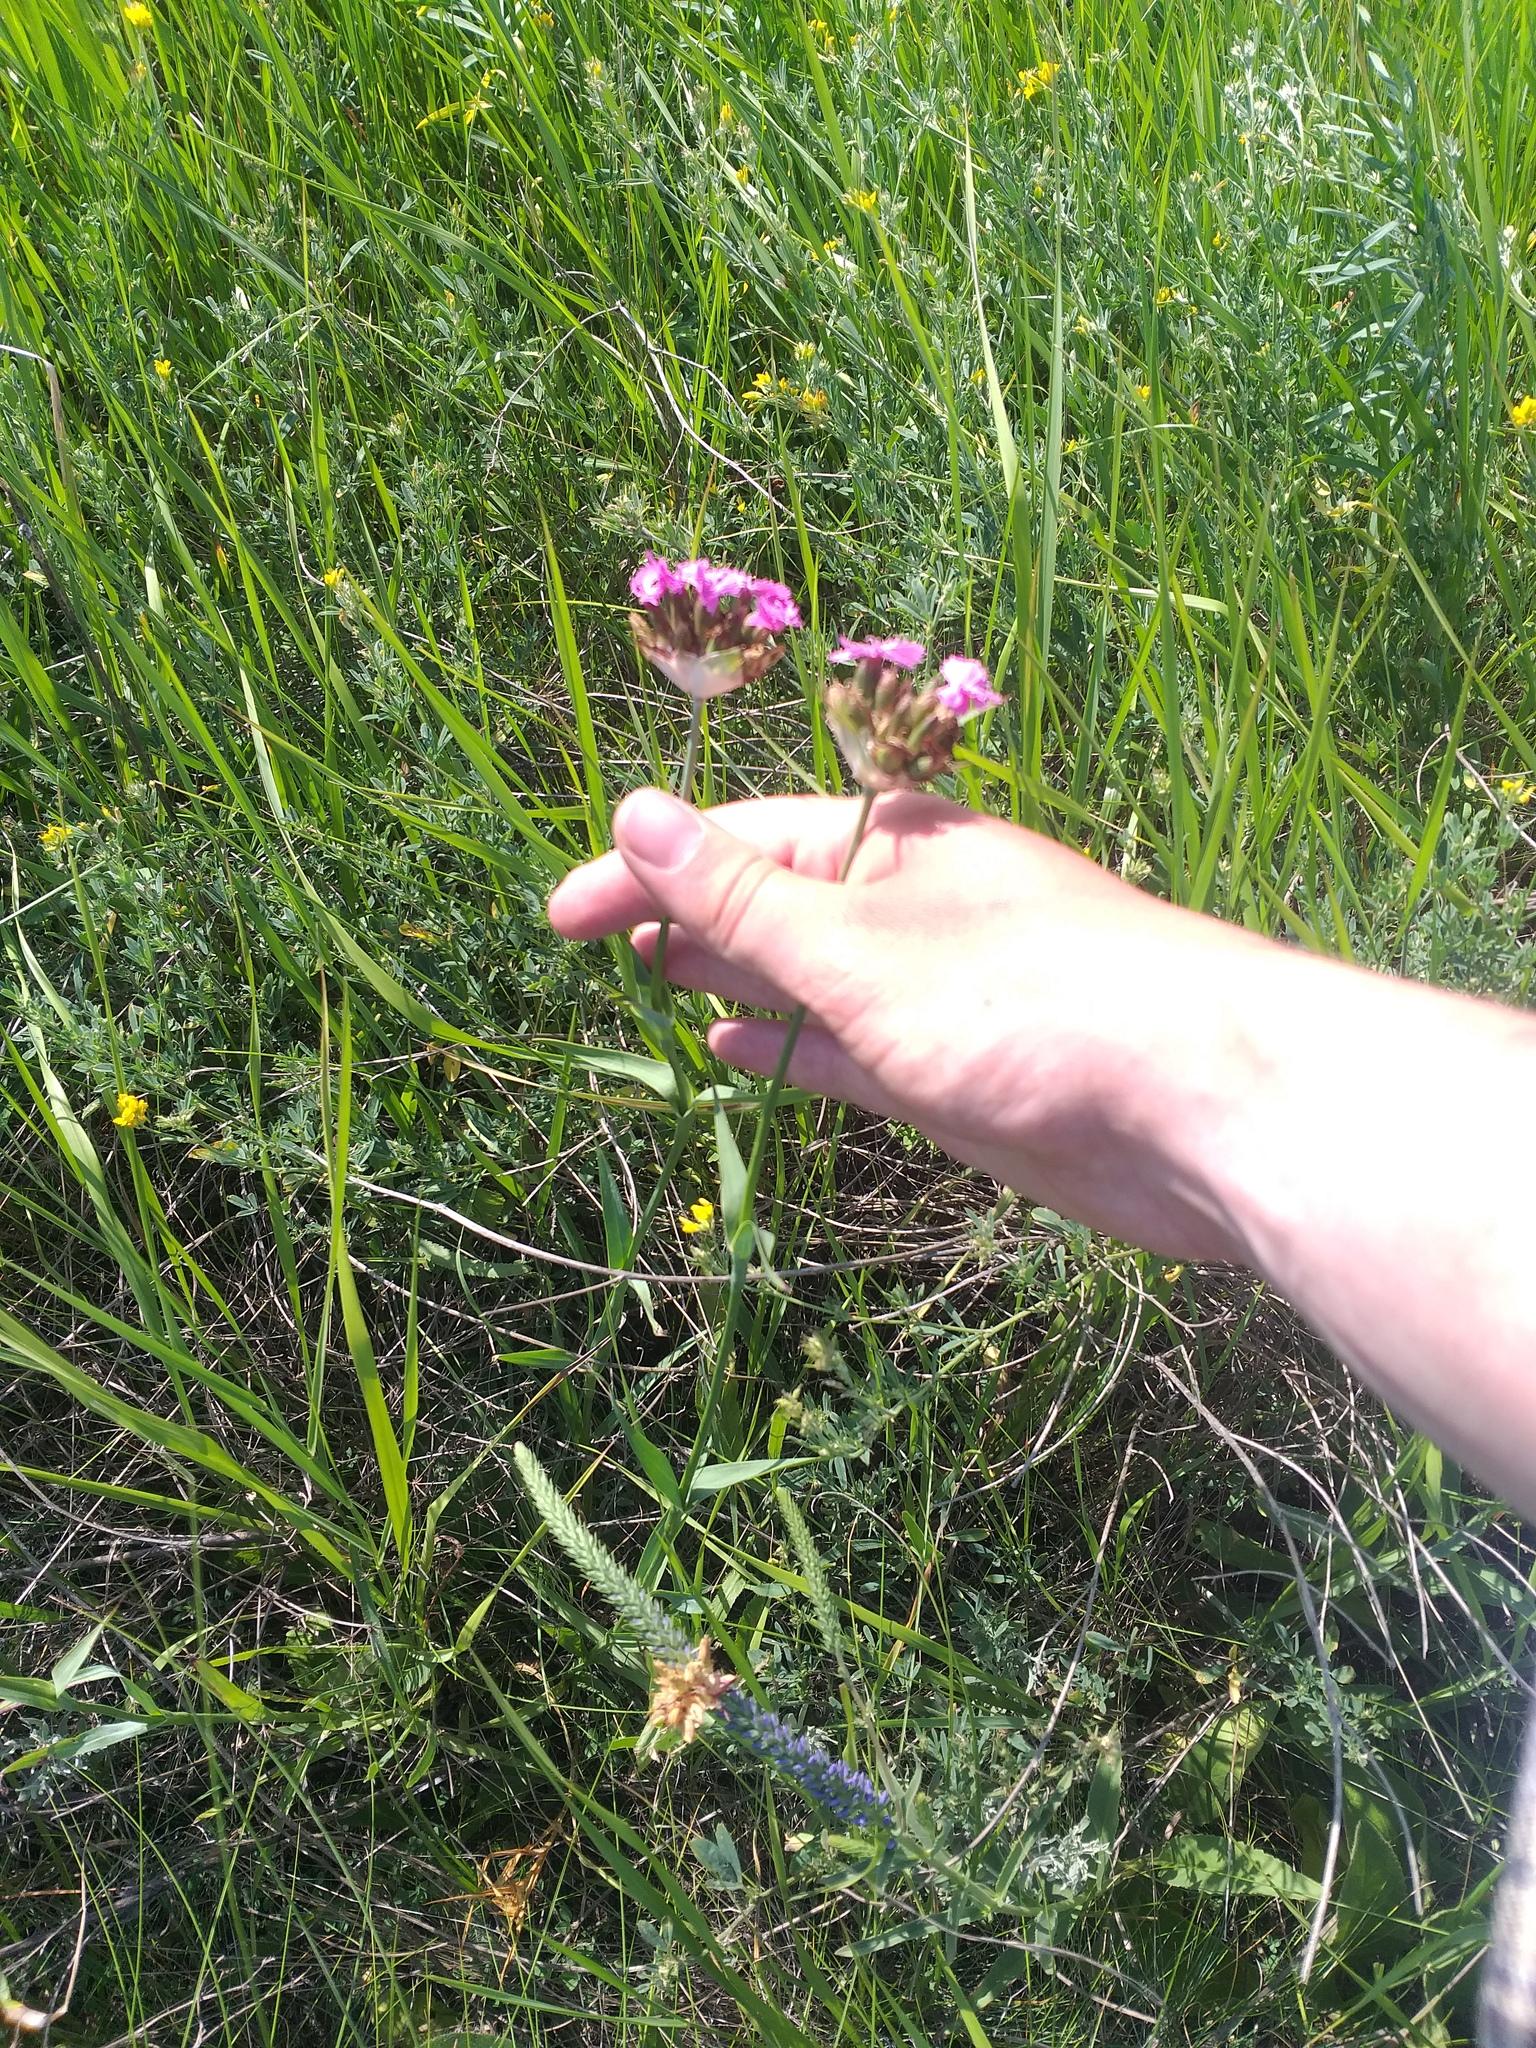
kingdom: Plantae
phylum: Tracheophyta
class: Magnoliopsida
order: Caryophyllales
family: Caryophyllaceae
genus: Dianthus
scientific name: Dianthus capitatus
